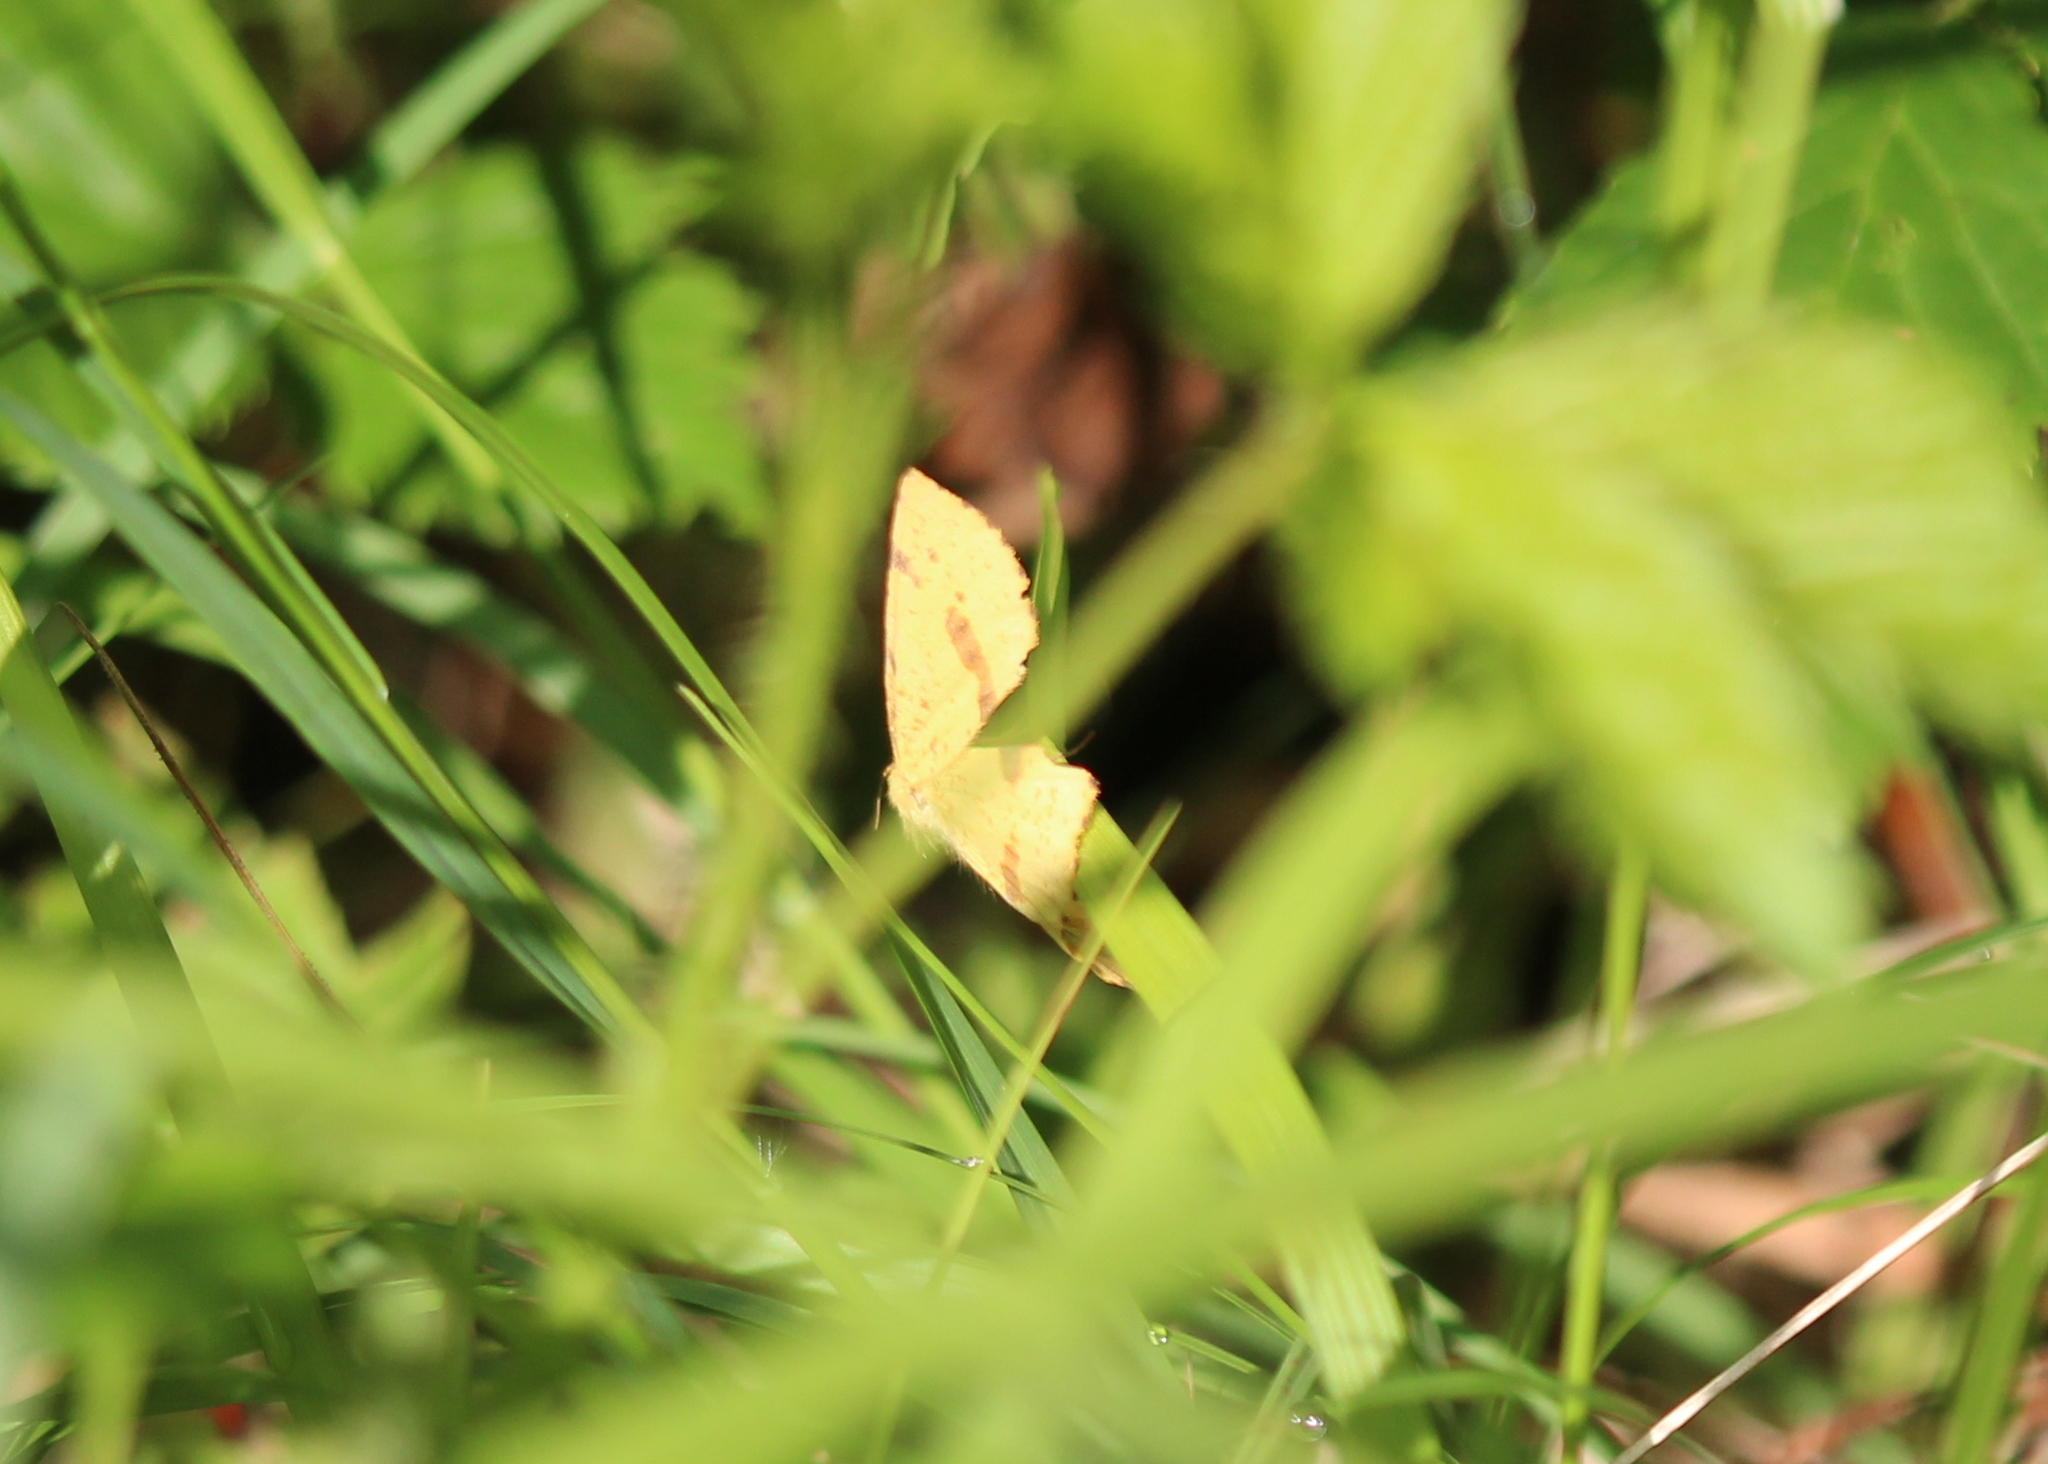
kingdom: Animalia
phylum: Arthropoda
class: Insecta
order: Lepidoptera
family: Geometridae
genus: Xanthotype
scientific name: Xanthotype
